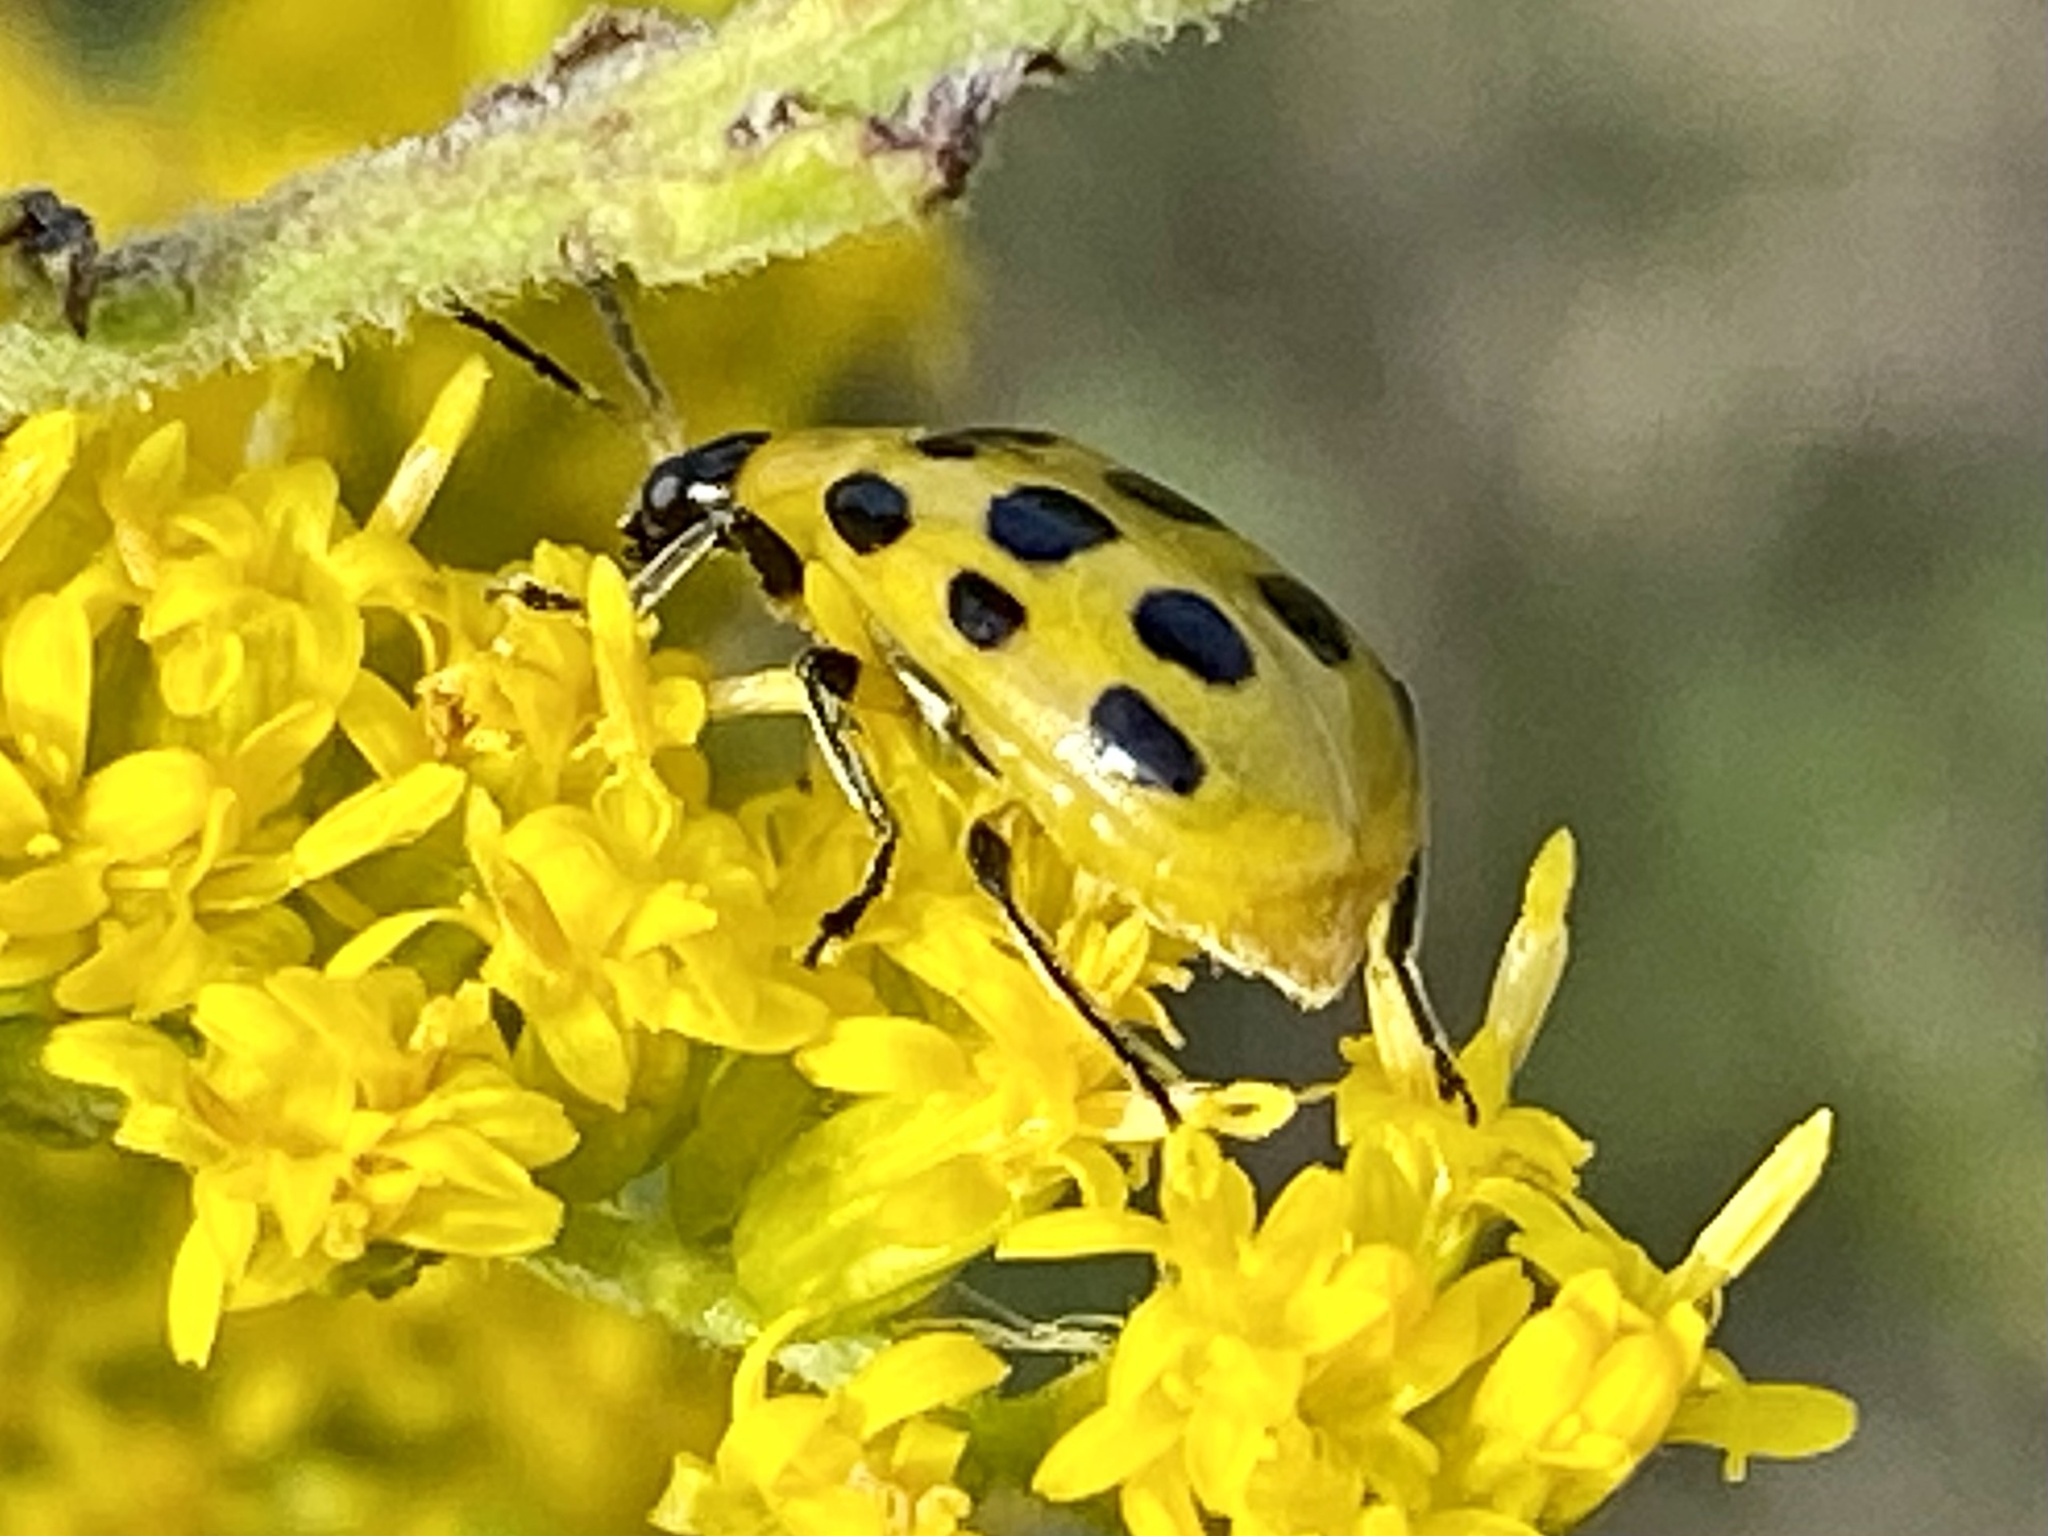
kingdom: Animalia
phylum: Arthropoda
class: Insecta
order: Coleoptera
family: Chrysomelidae
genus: Diabrotica
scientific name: Diabrotica undecimpunctata
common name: Spotted cucumber beetle
